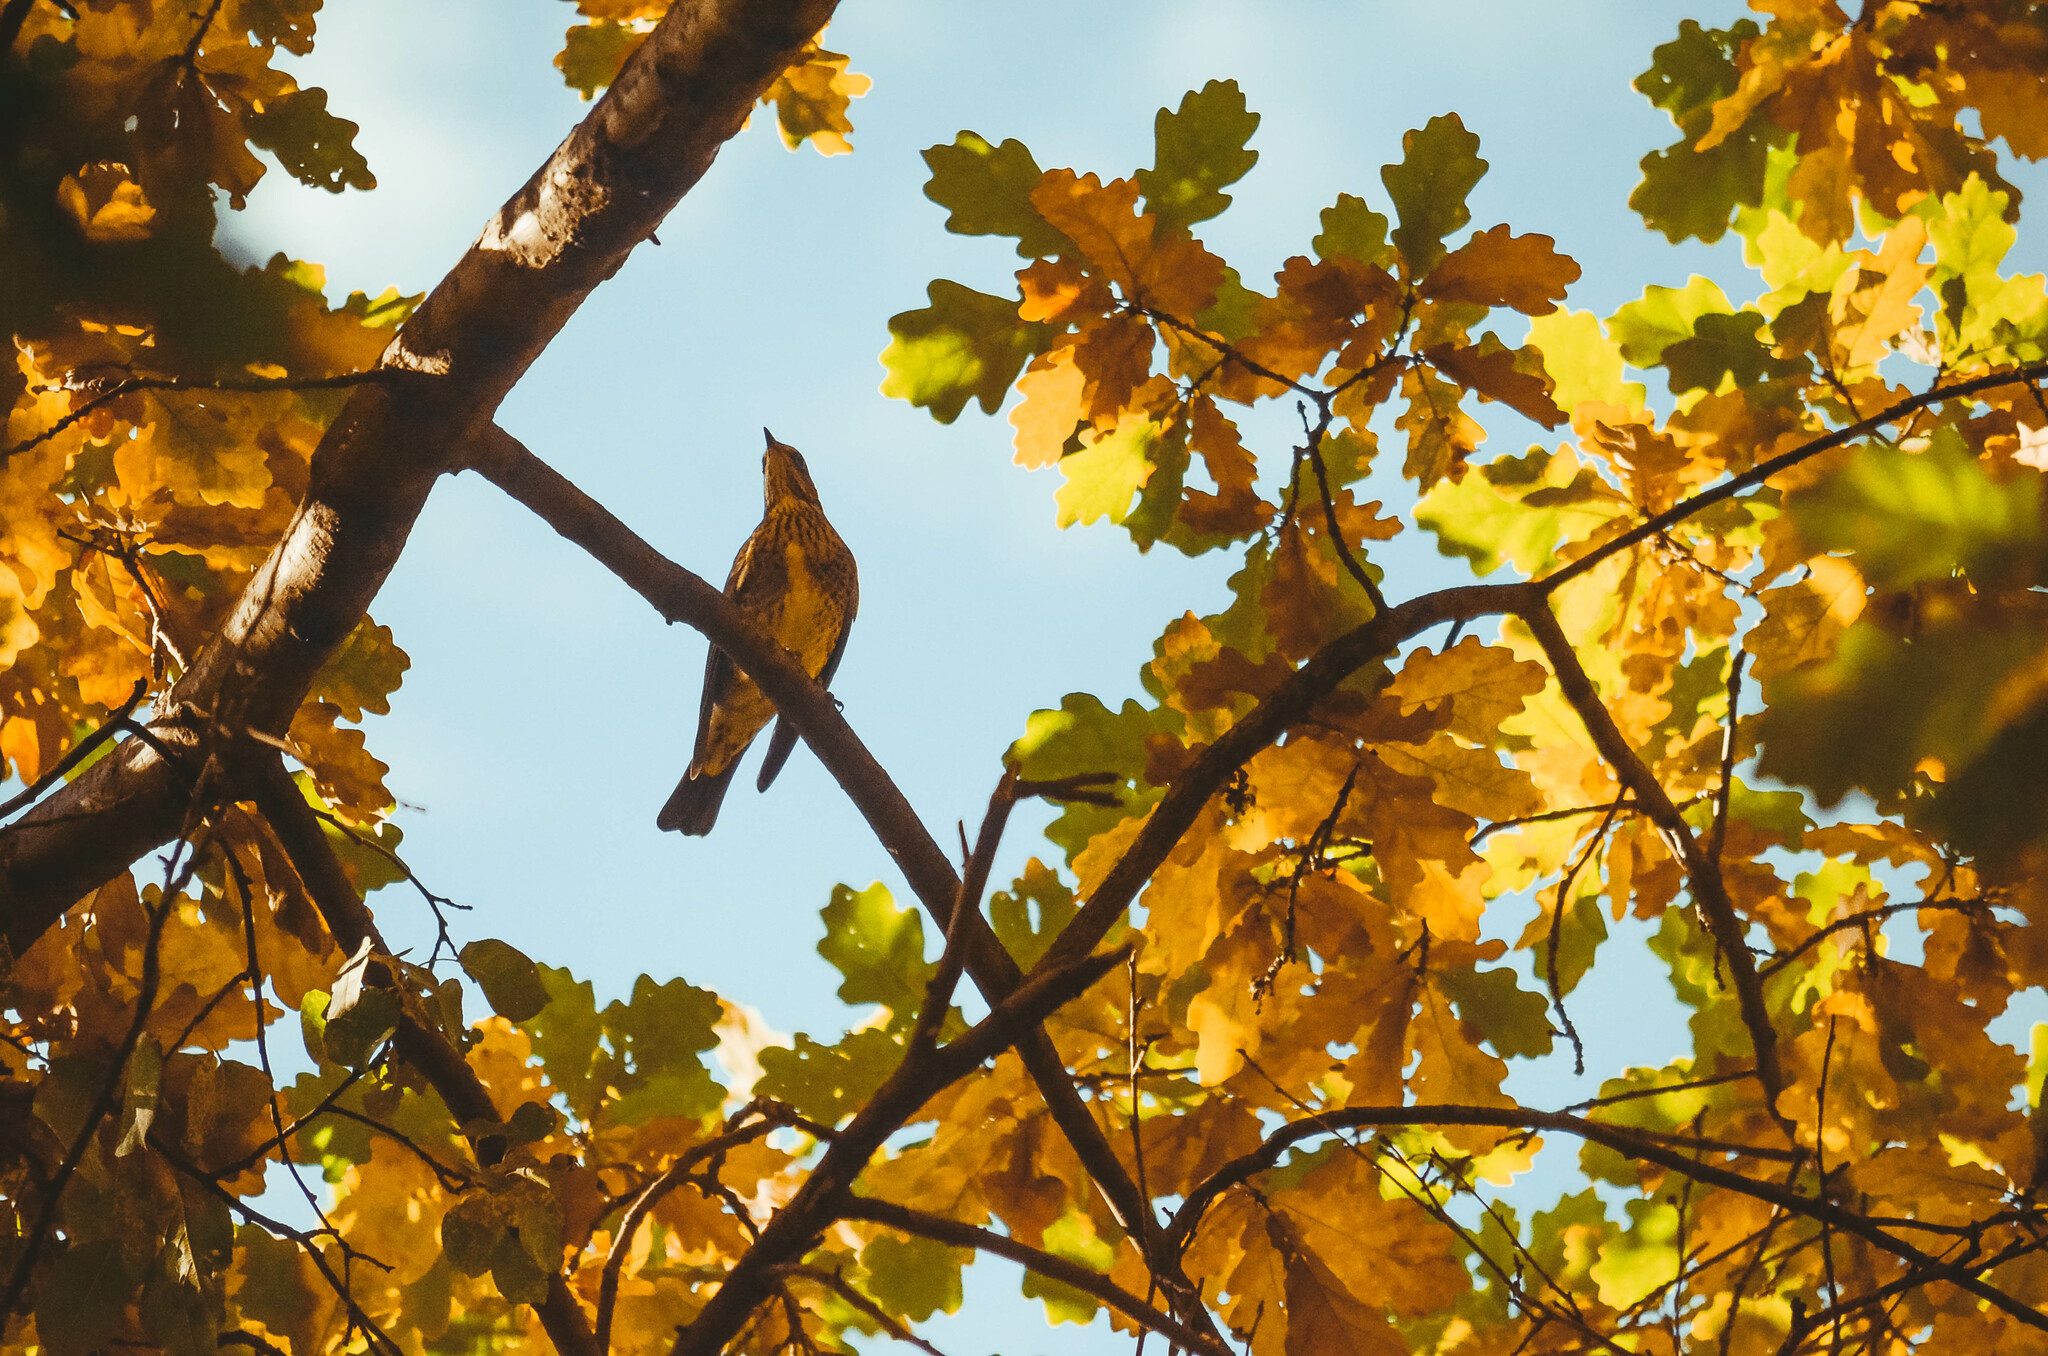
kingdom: Animalia
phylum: Chordata
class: Aves
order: Passeriformes
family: Turdidae
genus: Turdus
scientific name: Turdus pilaris
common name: Fieldfare
